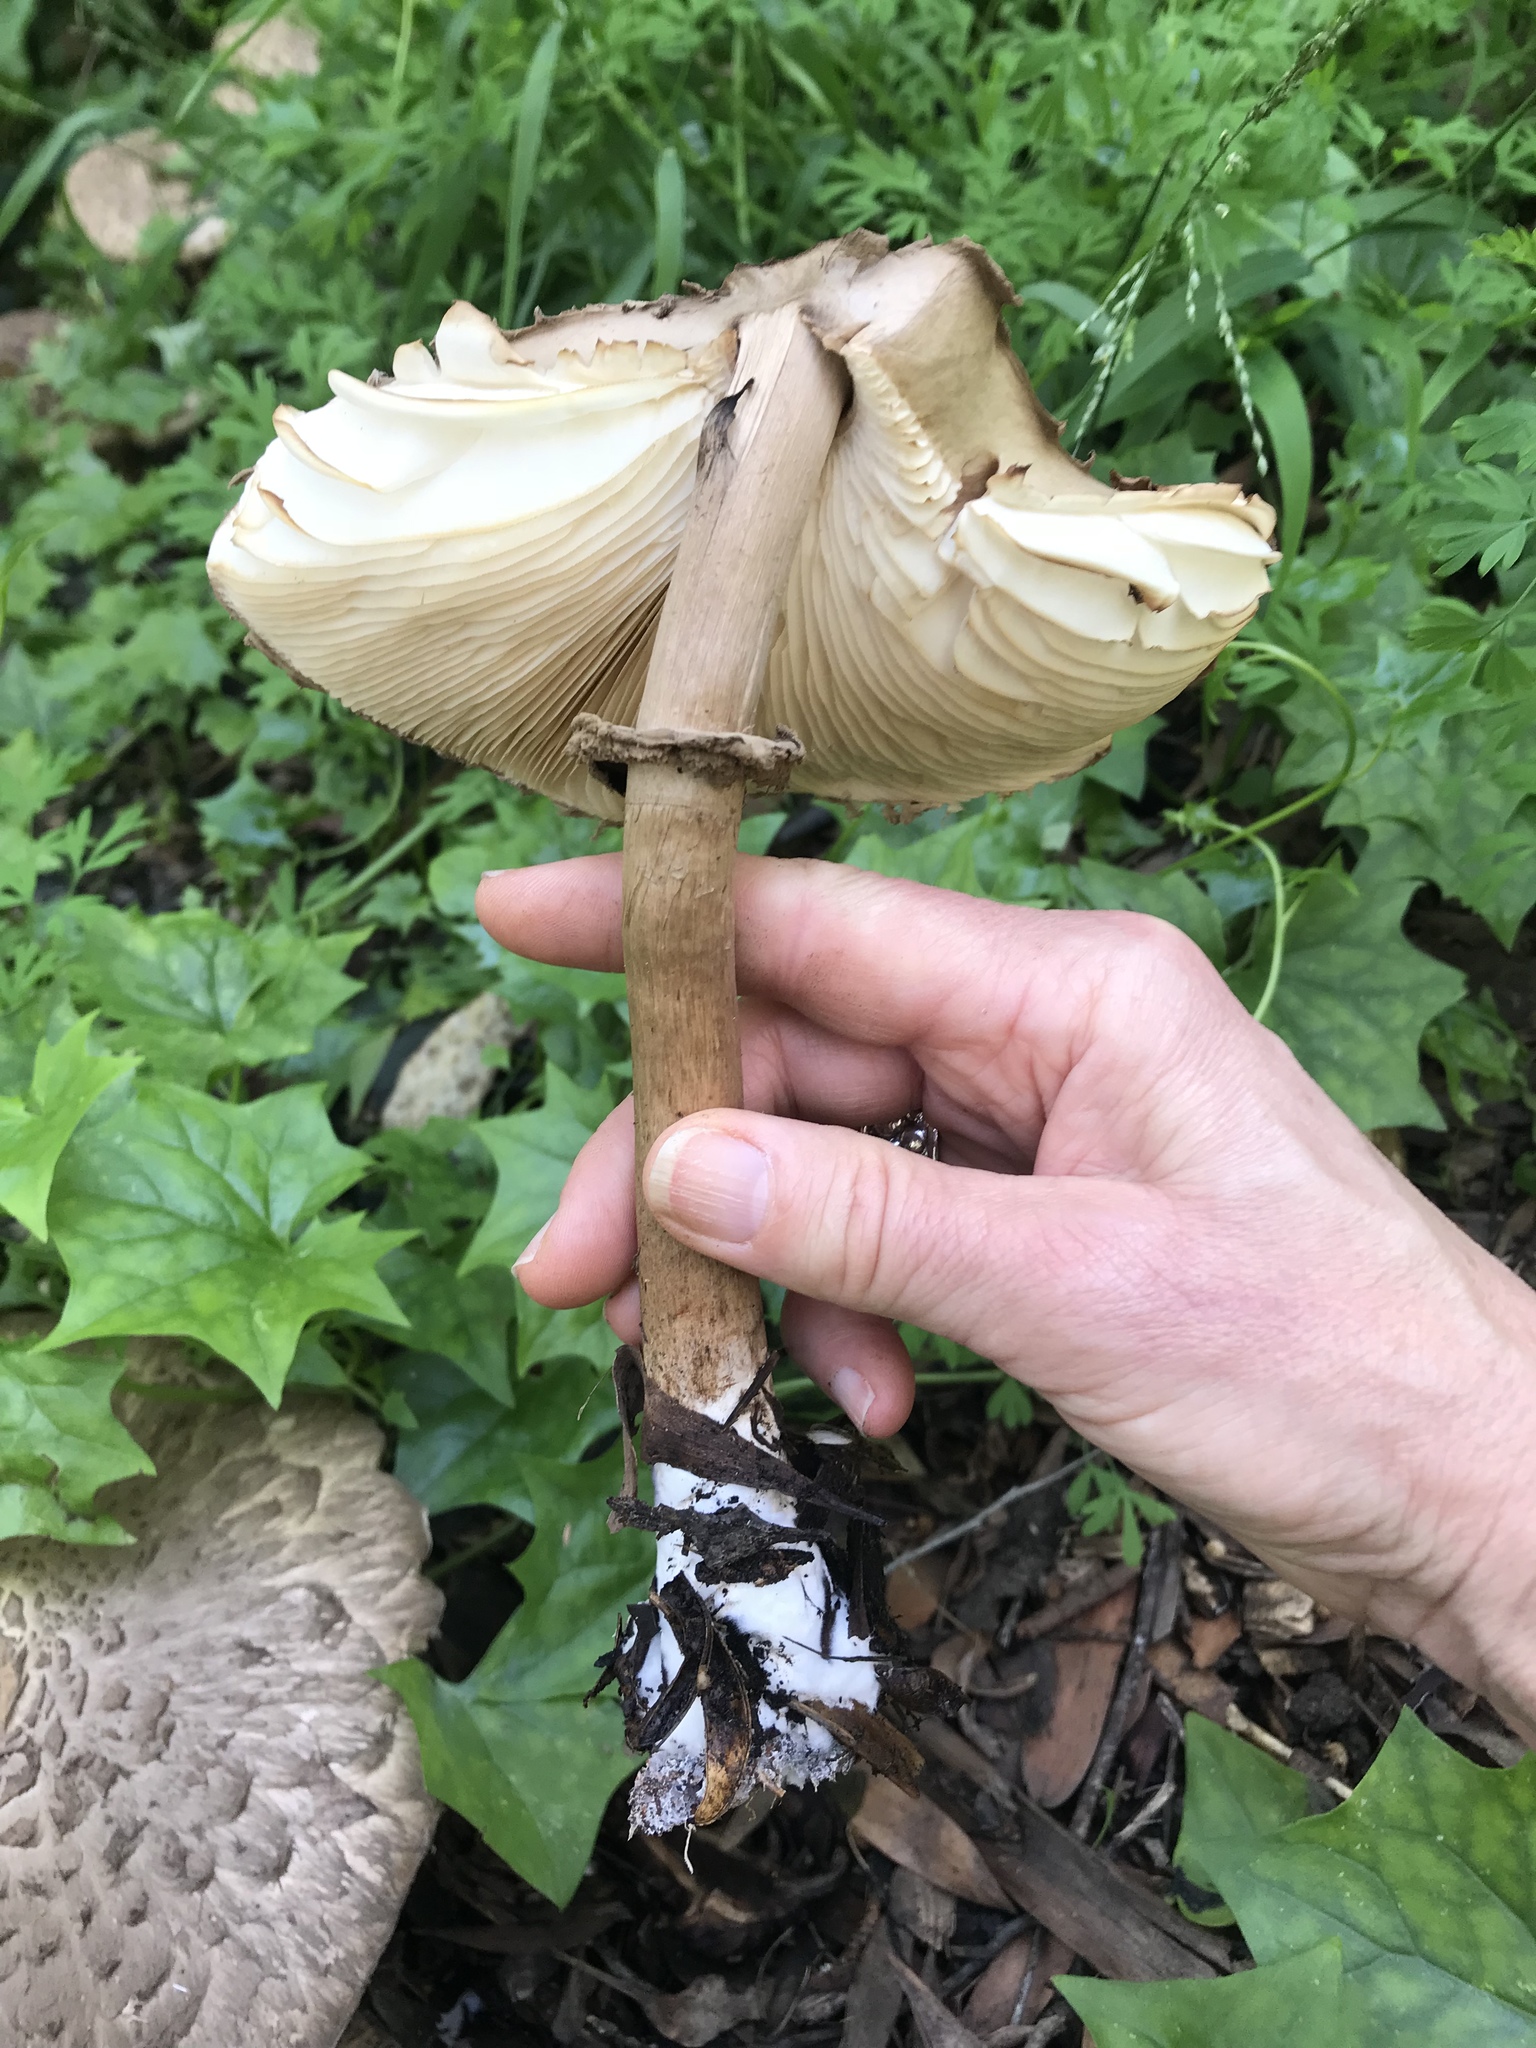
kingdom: Fungi
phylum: Basidiomycota
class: Agaricomycetes
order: Agaricales
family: Agaricaceae
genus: Chlorophyllum
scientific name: Chlorophyllum olivieri
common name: Conifer parasol
